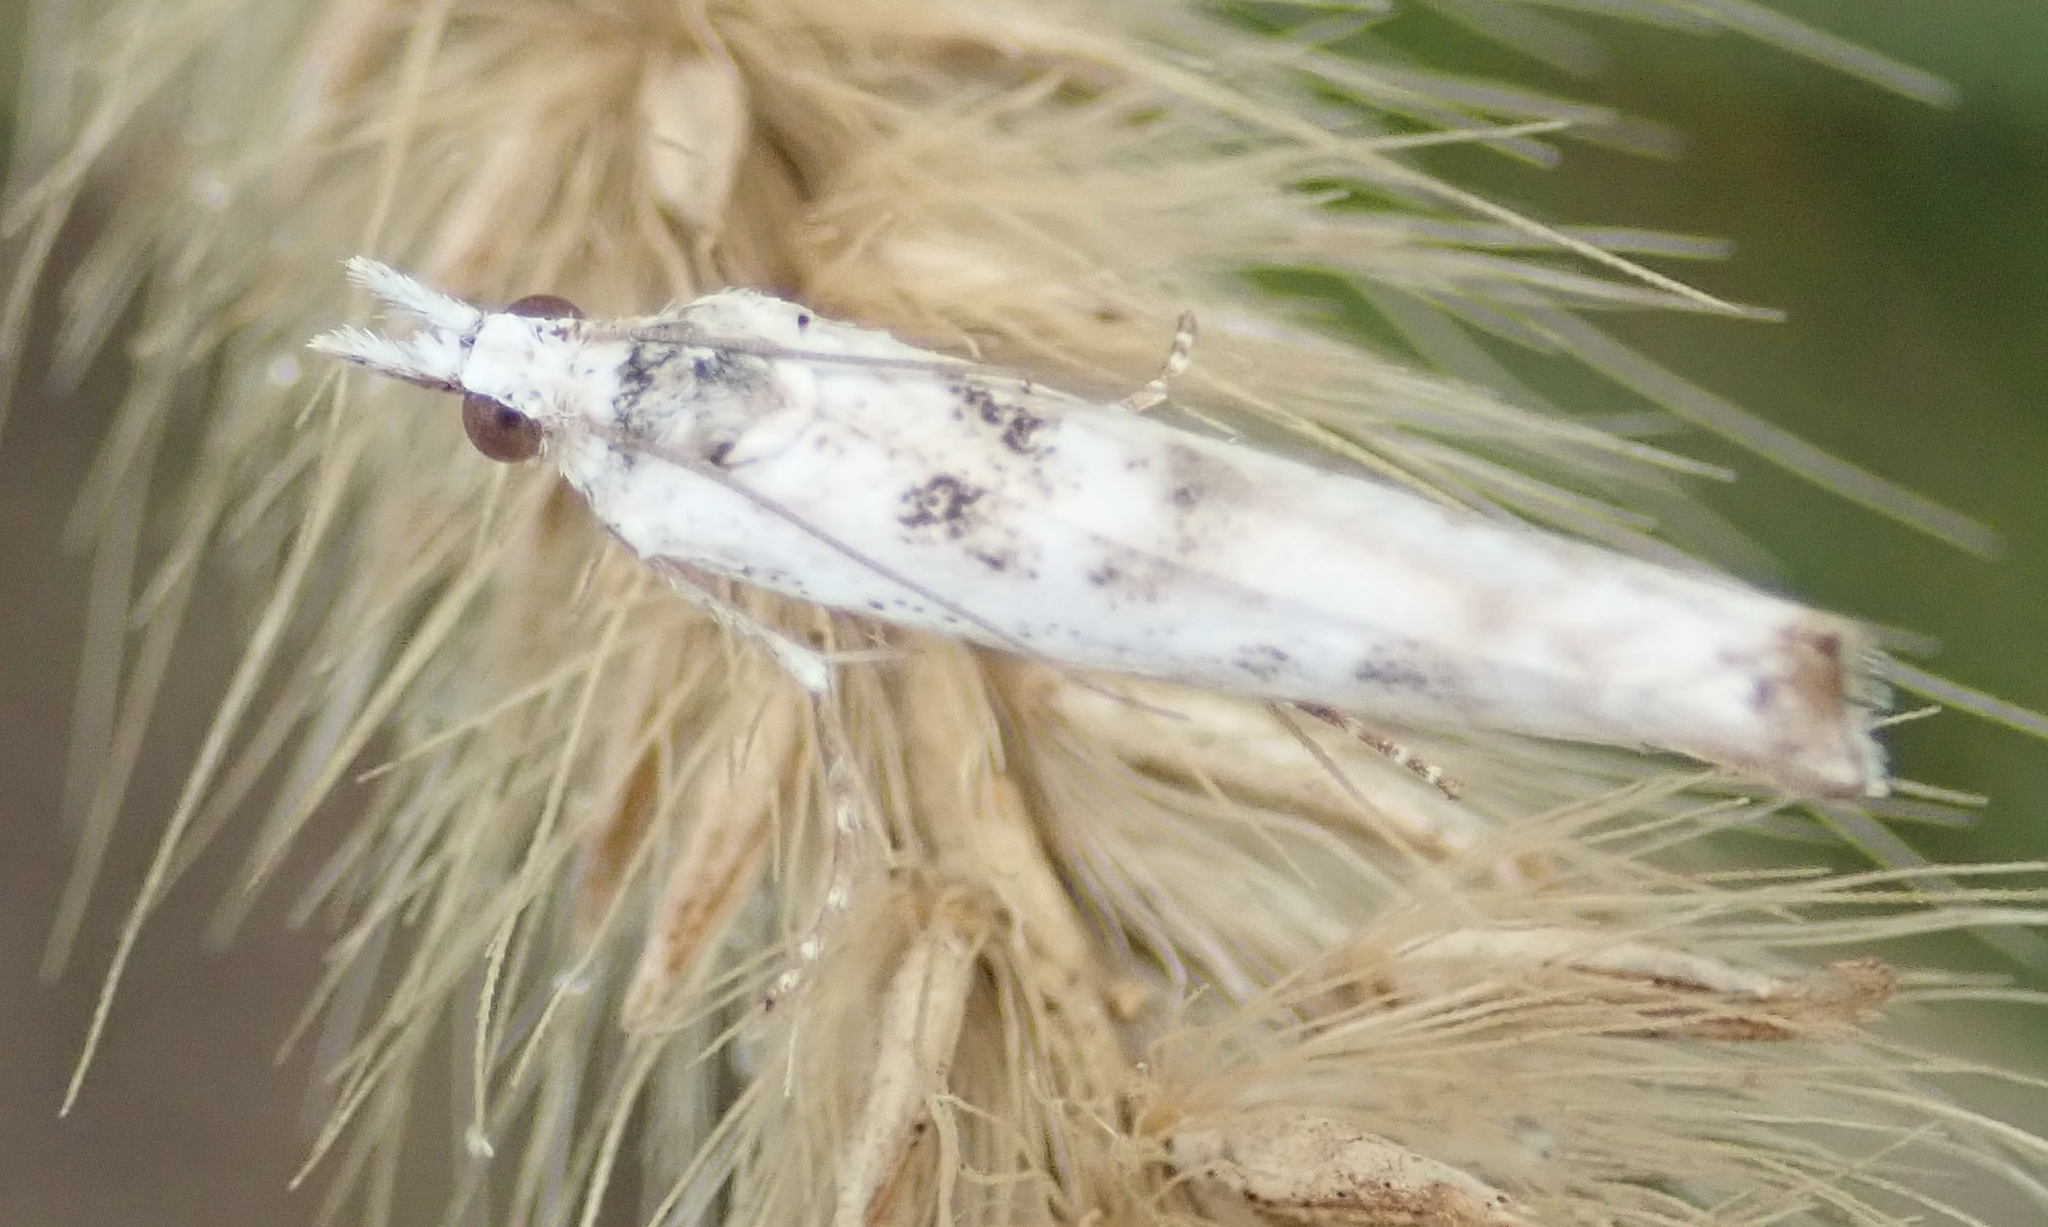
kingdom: Animalia
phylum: Arthropoda
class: Insecta
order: Lepidoptera
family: Crambidae
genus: Crambus
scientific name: Crambus sparsellus
